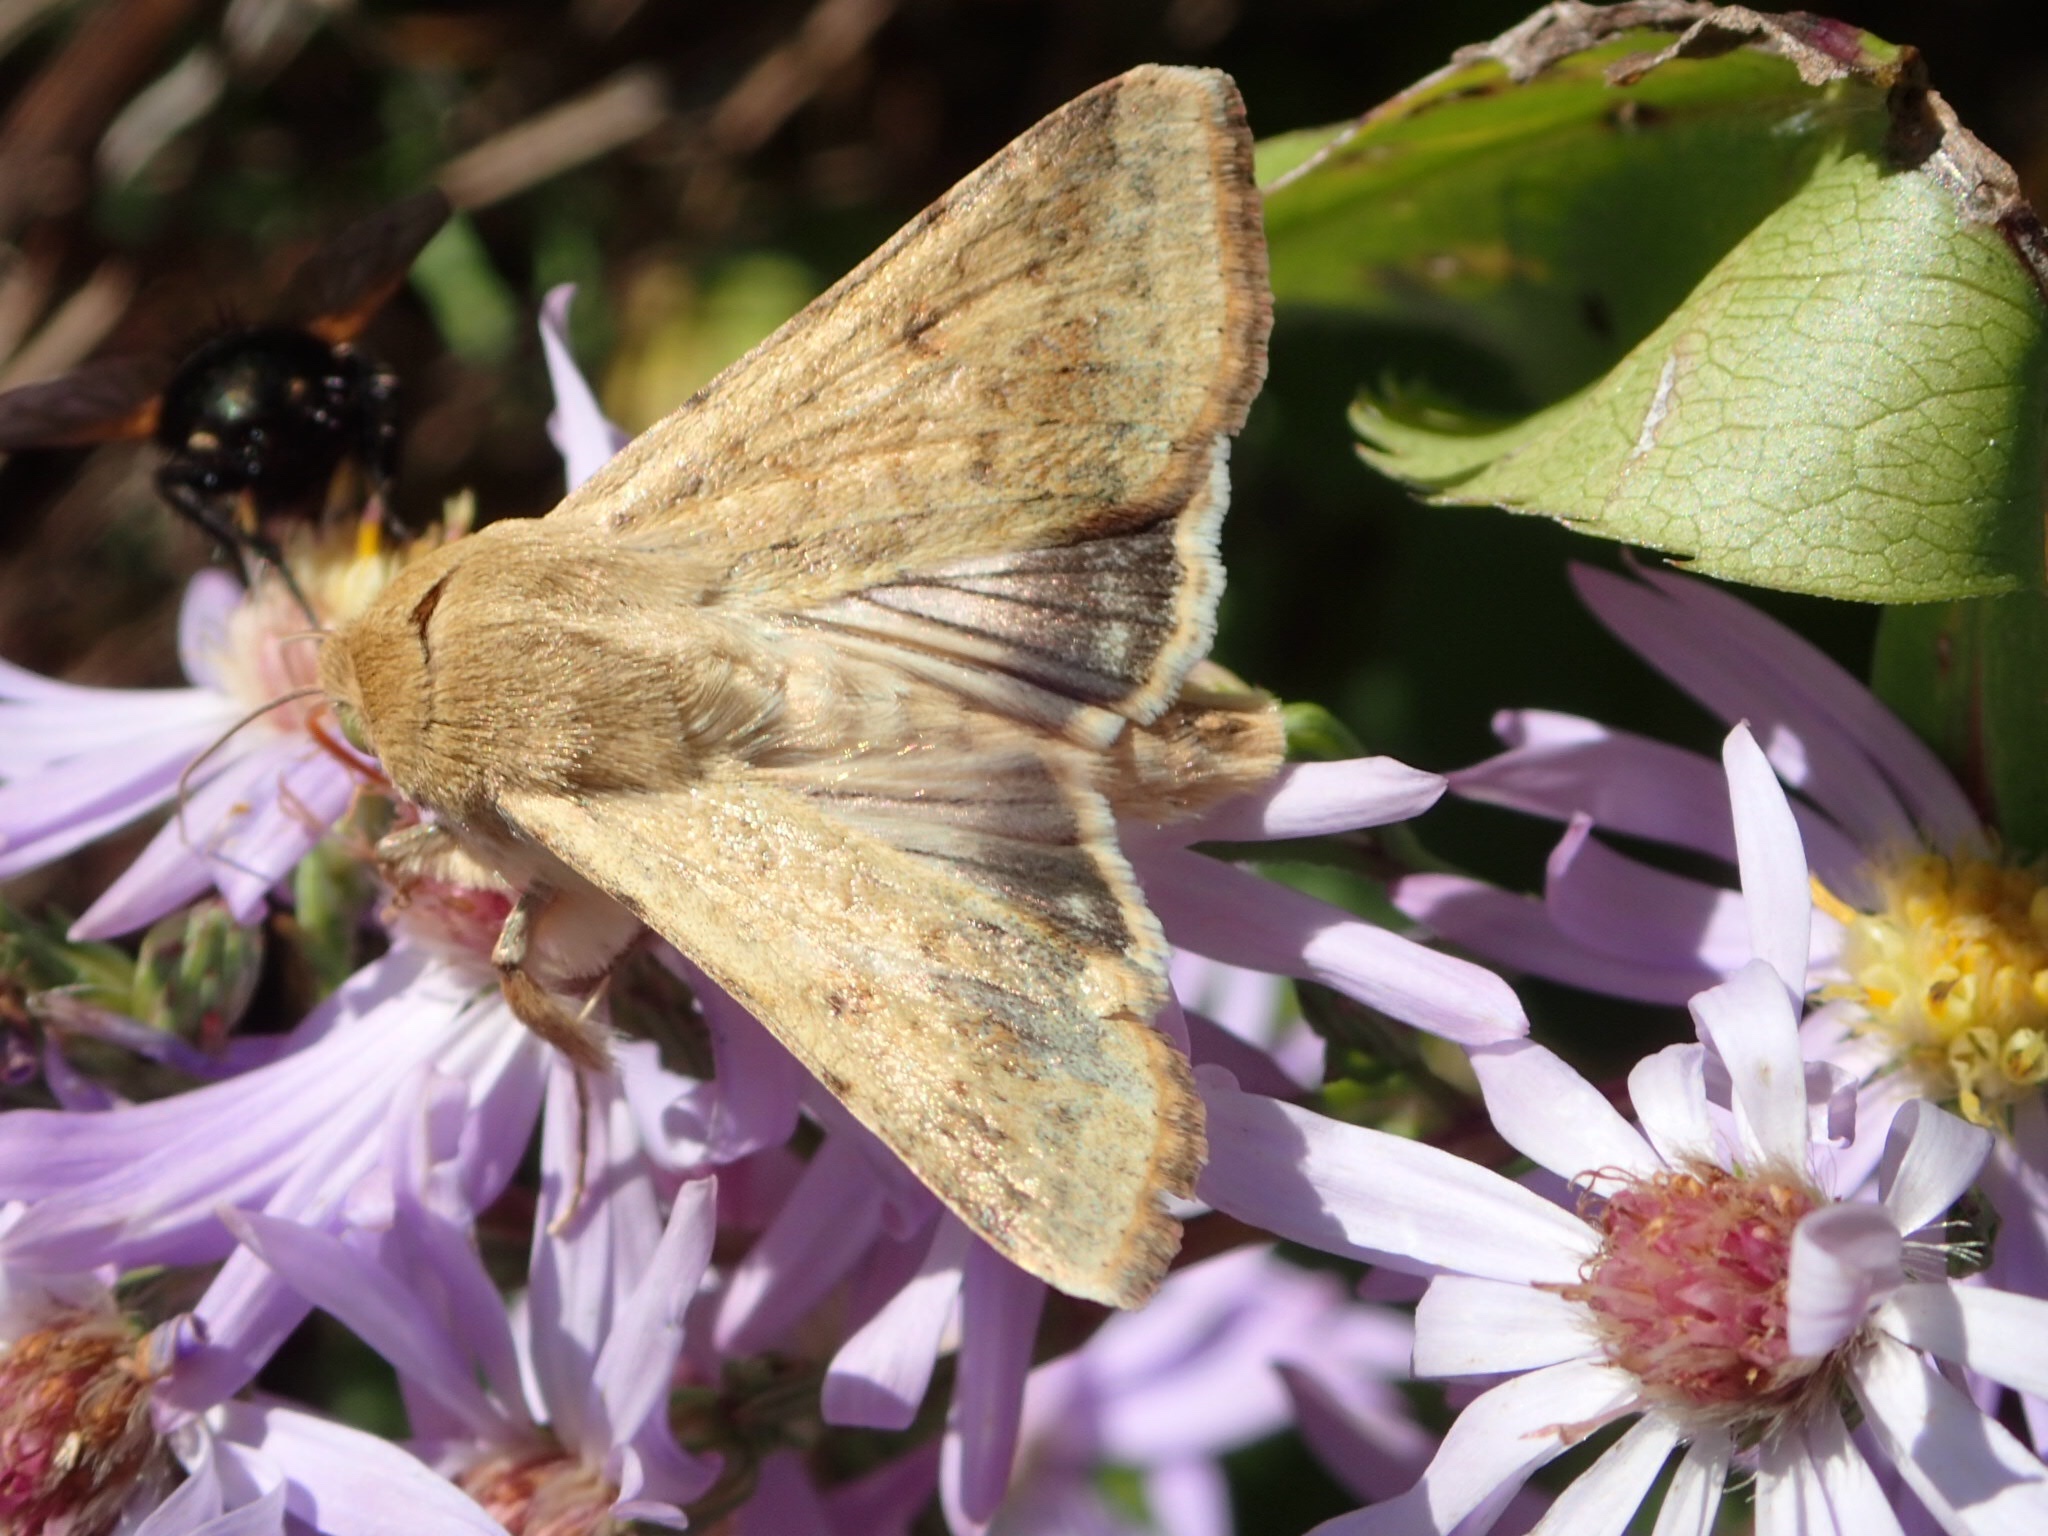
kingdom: Animalia
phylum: Arthropoda
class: Insecta
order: Lepidoptera
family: Noctuidae
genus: Helicoverpa
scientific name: Helicoverpa zea
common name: Bollworm
